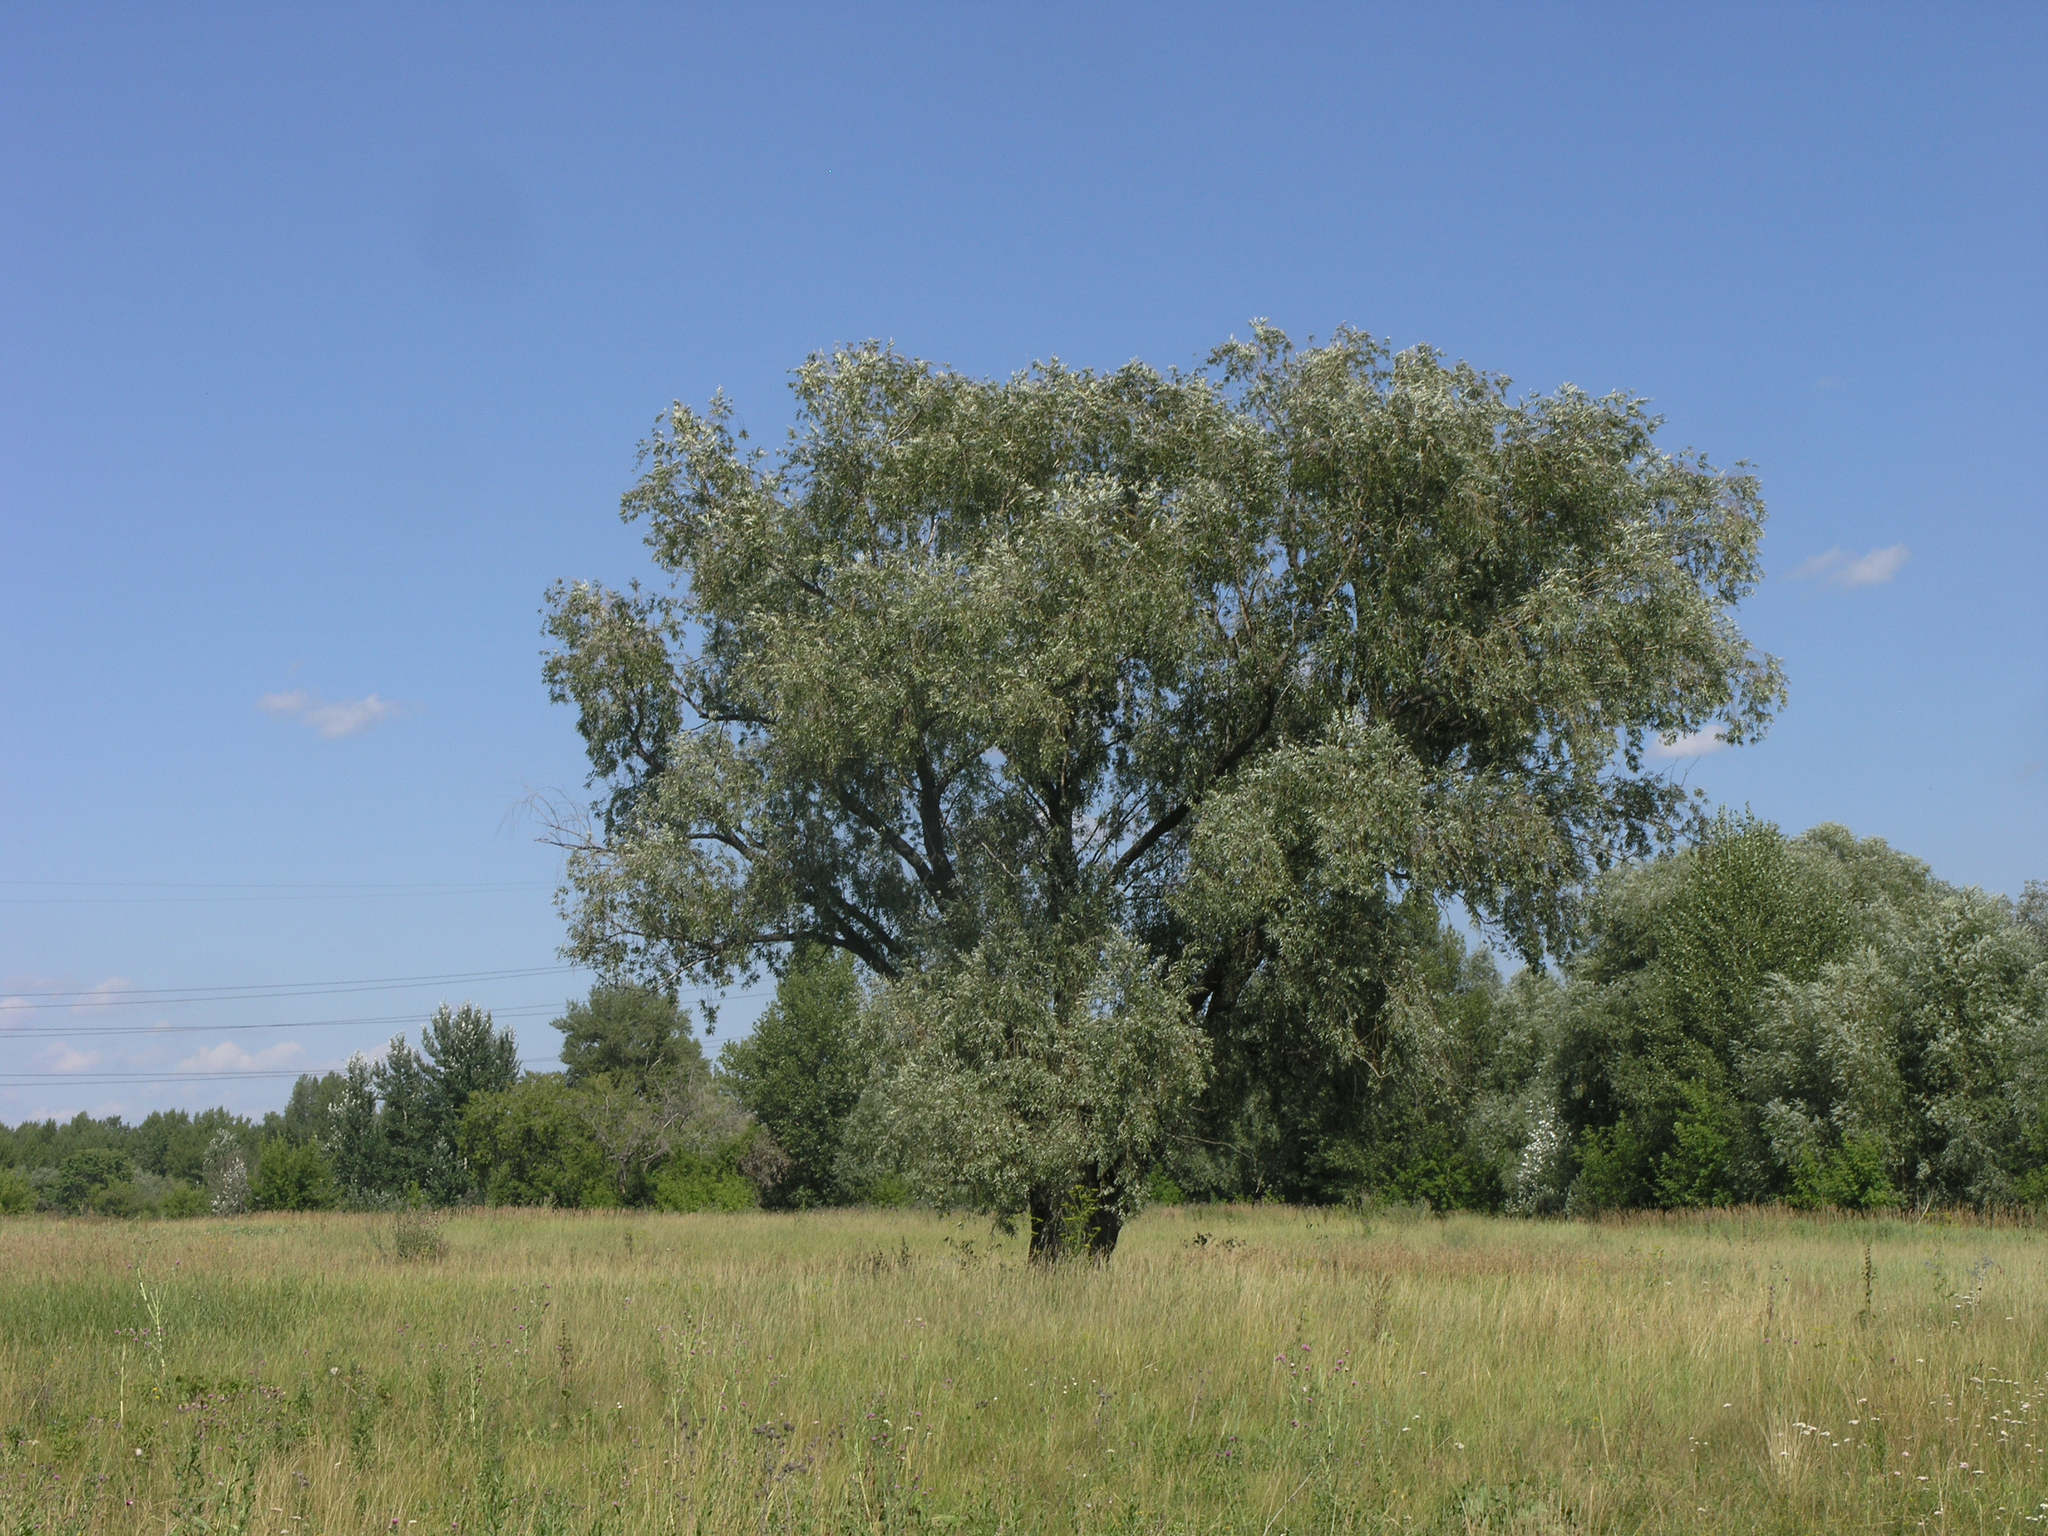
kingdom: Plantae
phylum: Tracheophyta
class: Magnoliopsida
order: Malpighiales
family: Salicaceae
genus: Salix
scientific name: Salix alba
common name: White willow
